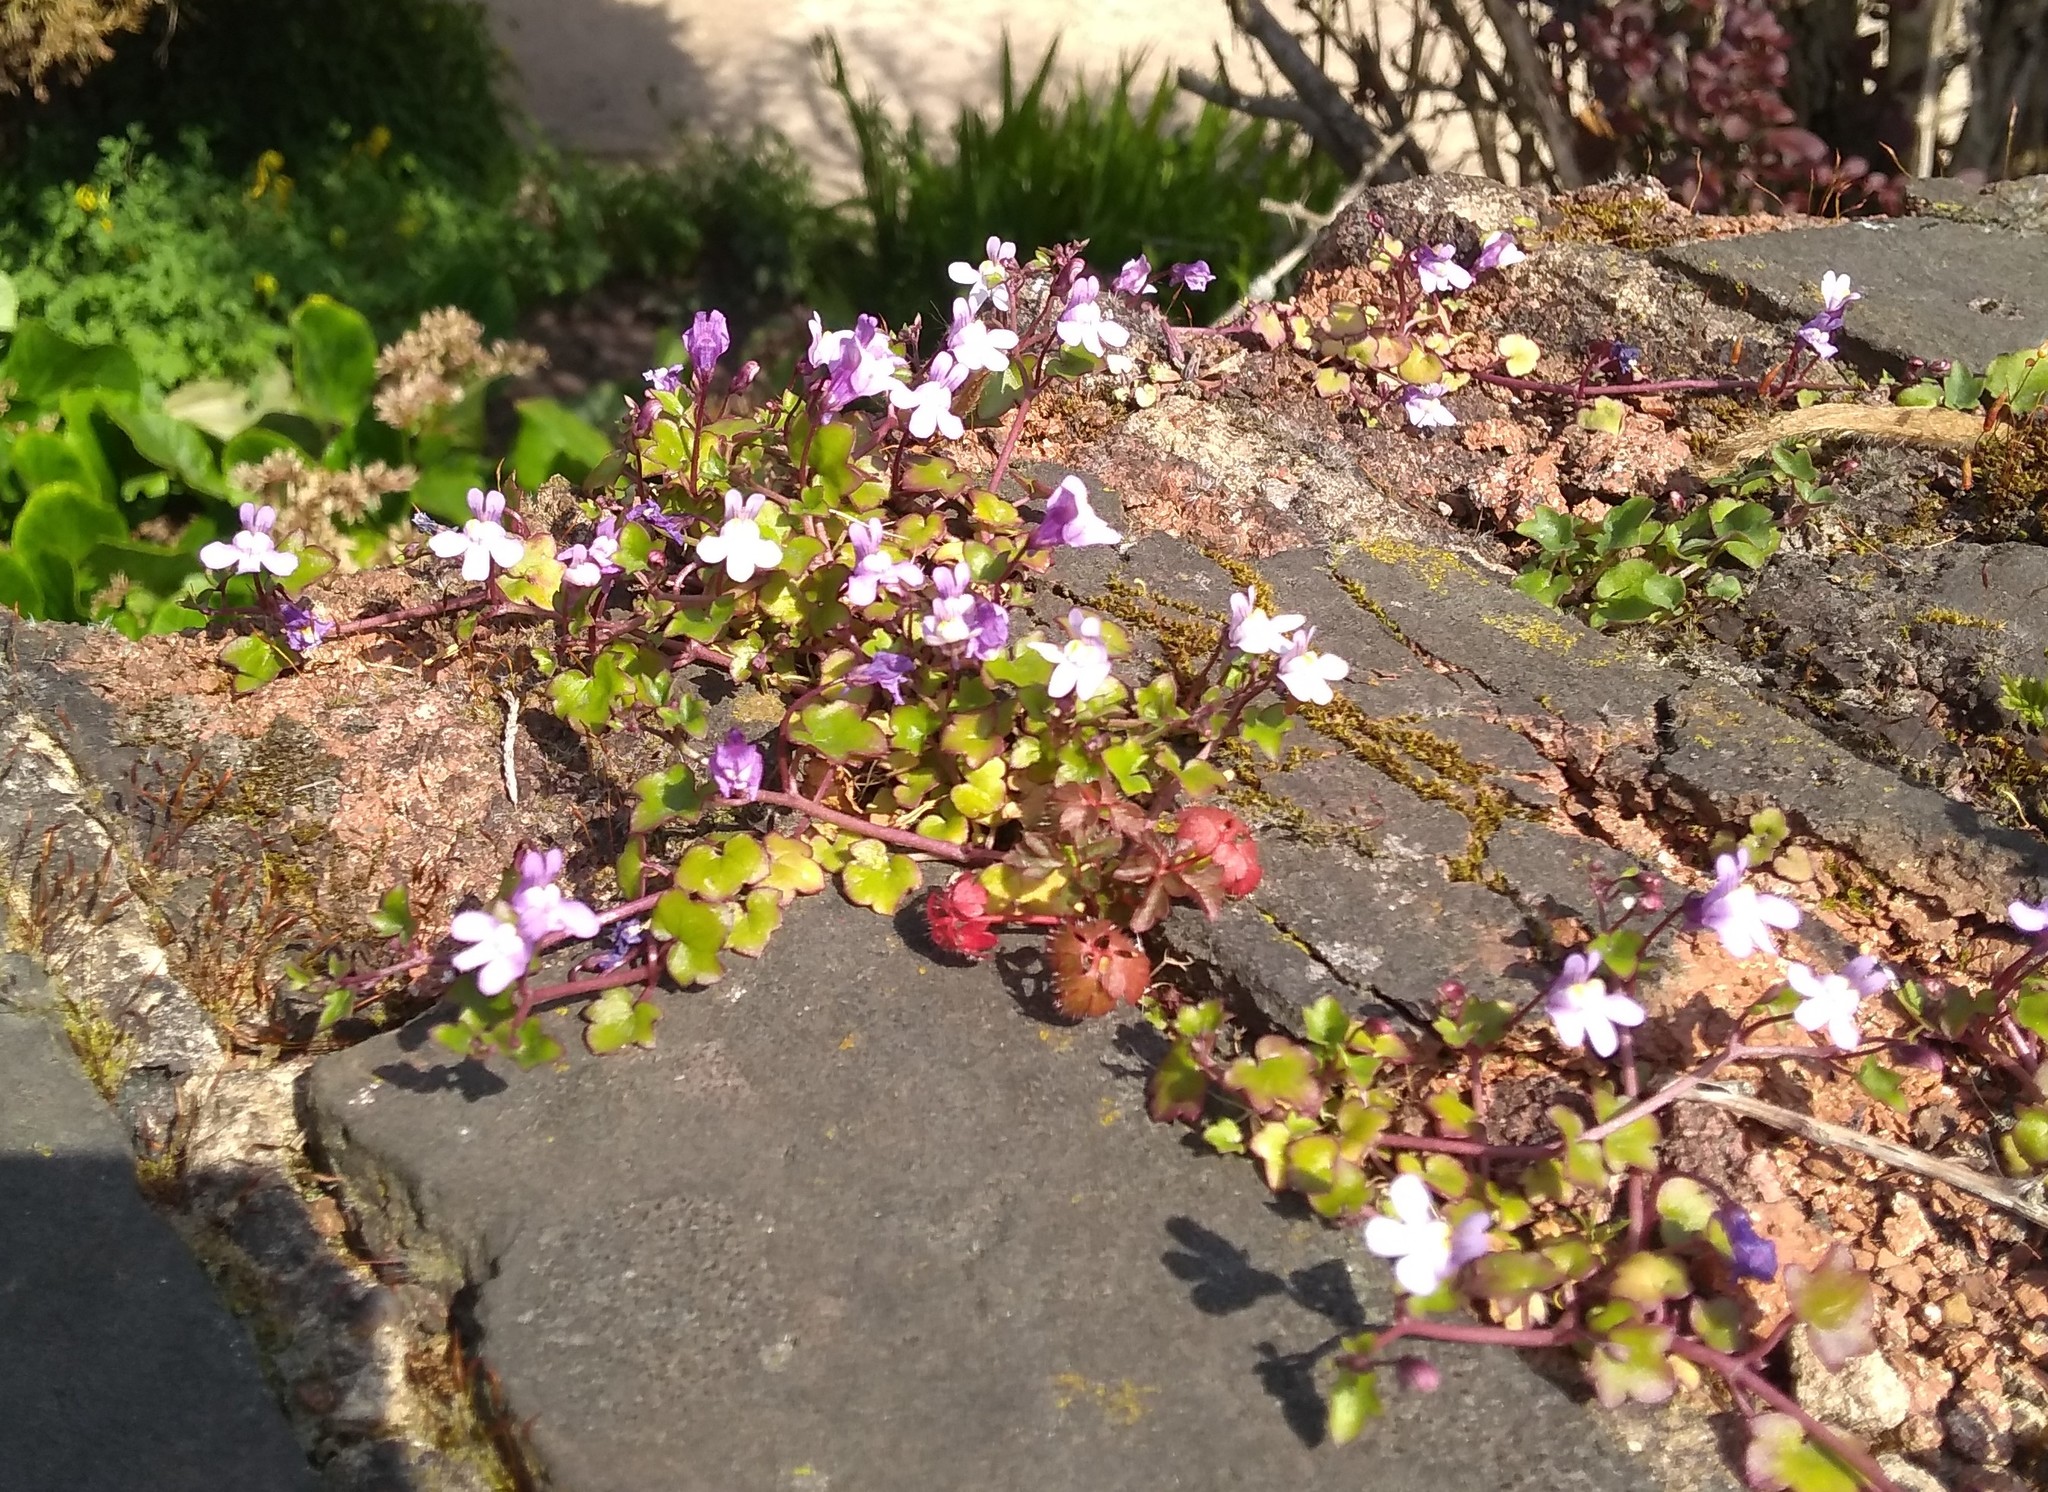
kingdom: Plantae
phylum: Tracheophyta
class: Magnoliopsida
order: Lamiales
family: Plantaginaceae
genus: Cymbalaria
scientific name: Cymbalaria muralis
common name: Ivy-leaved toadflax
